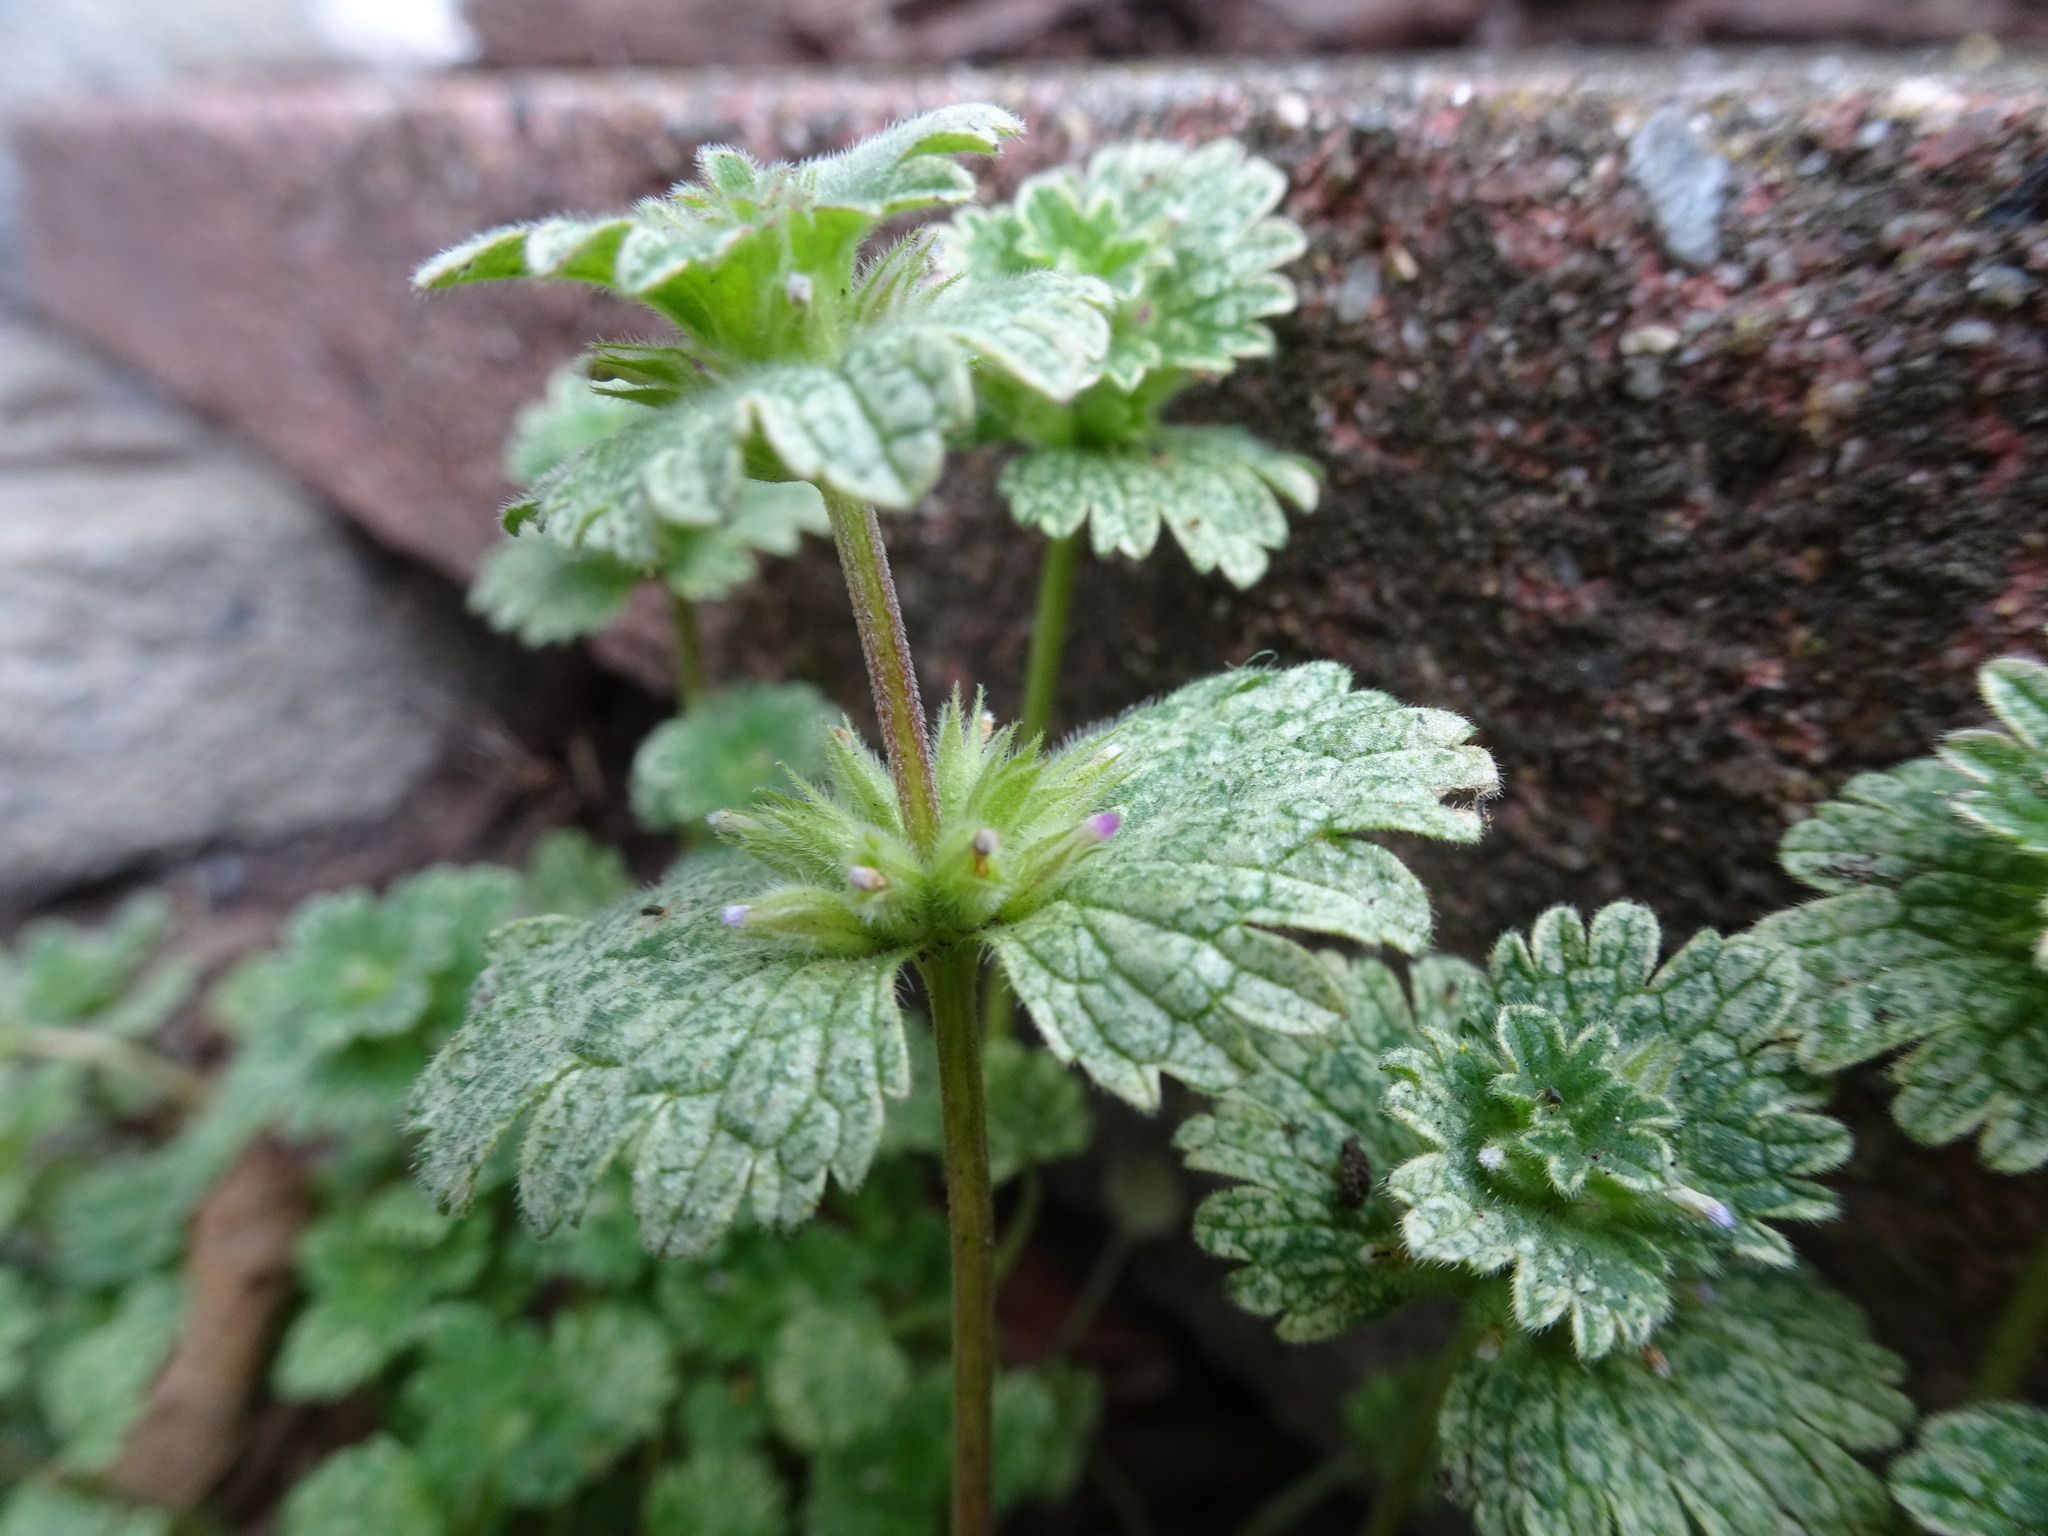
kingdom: Plantae
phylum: Tracheophyta
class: Magnoliopsida
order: Lamiales
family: Lamiaceae
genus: Lamium
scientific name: Lamium amplexicaule
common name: Henbit dead-nettle
